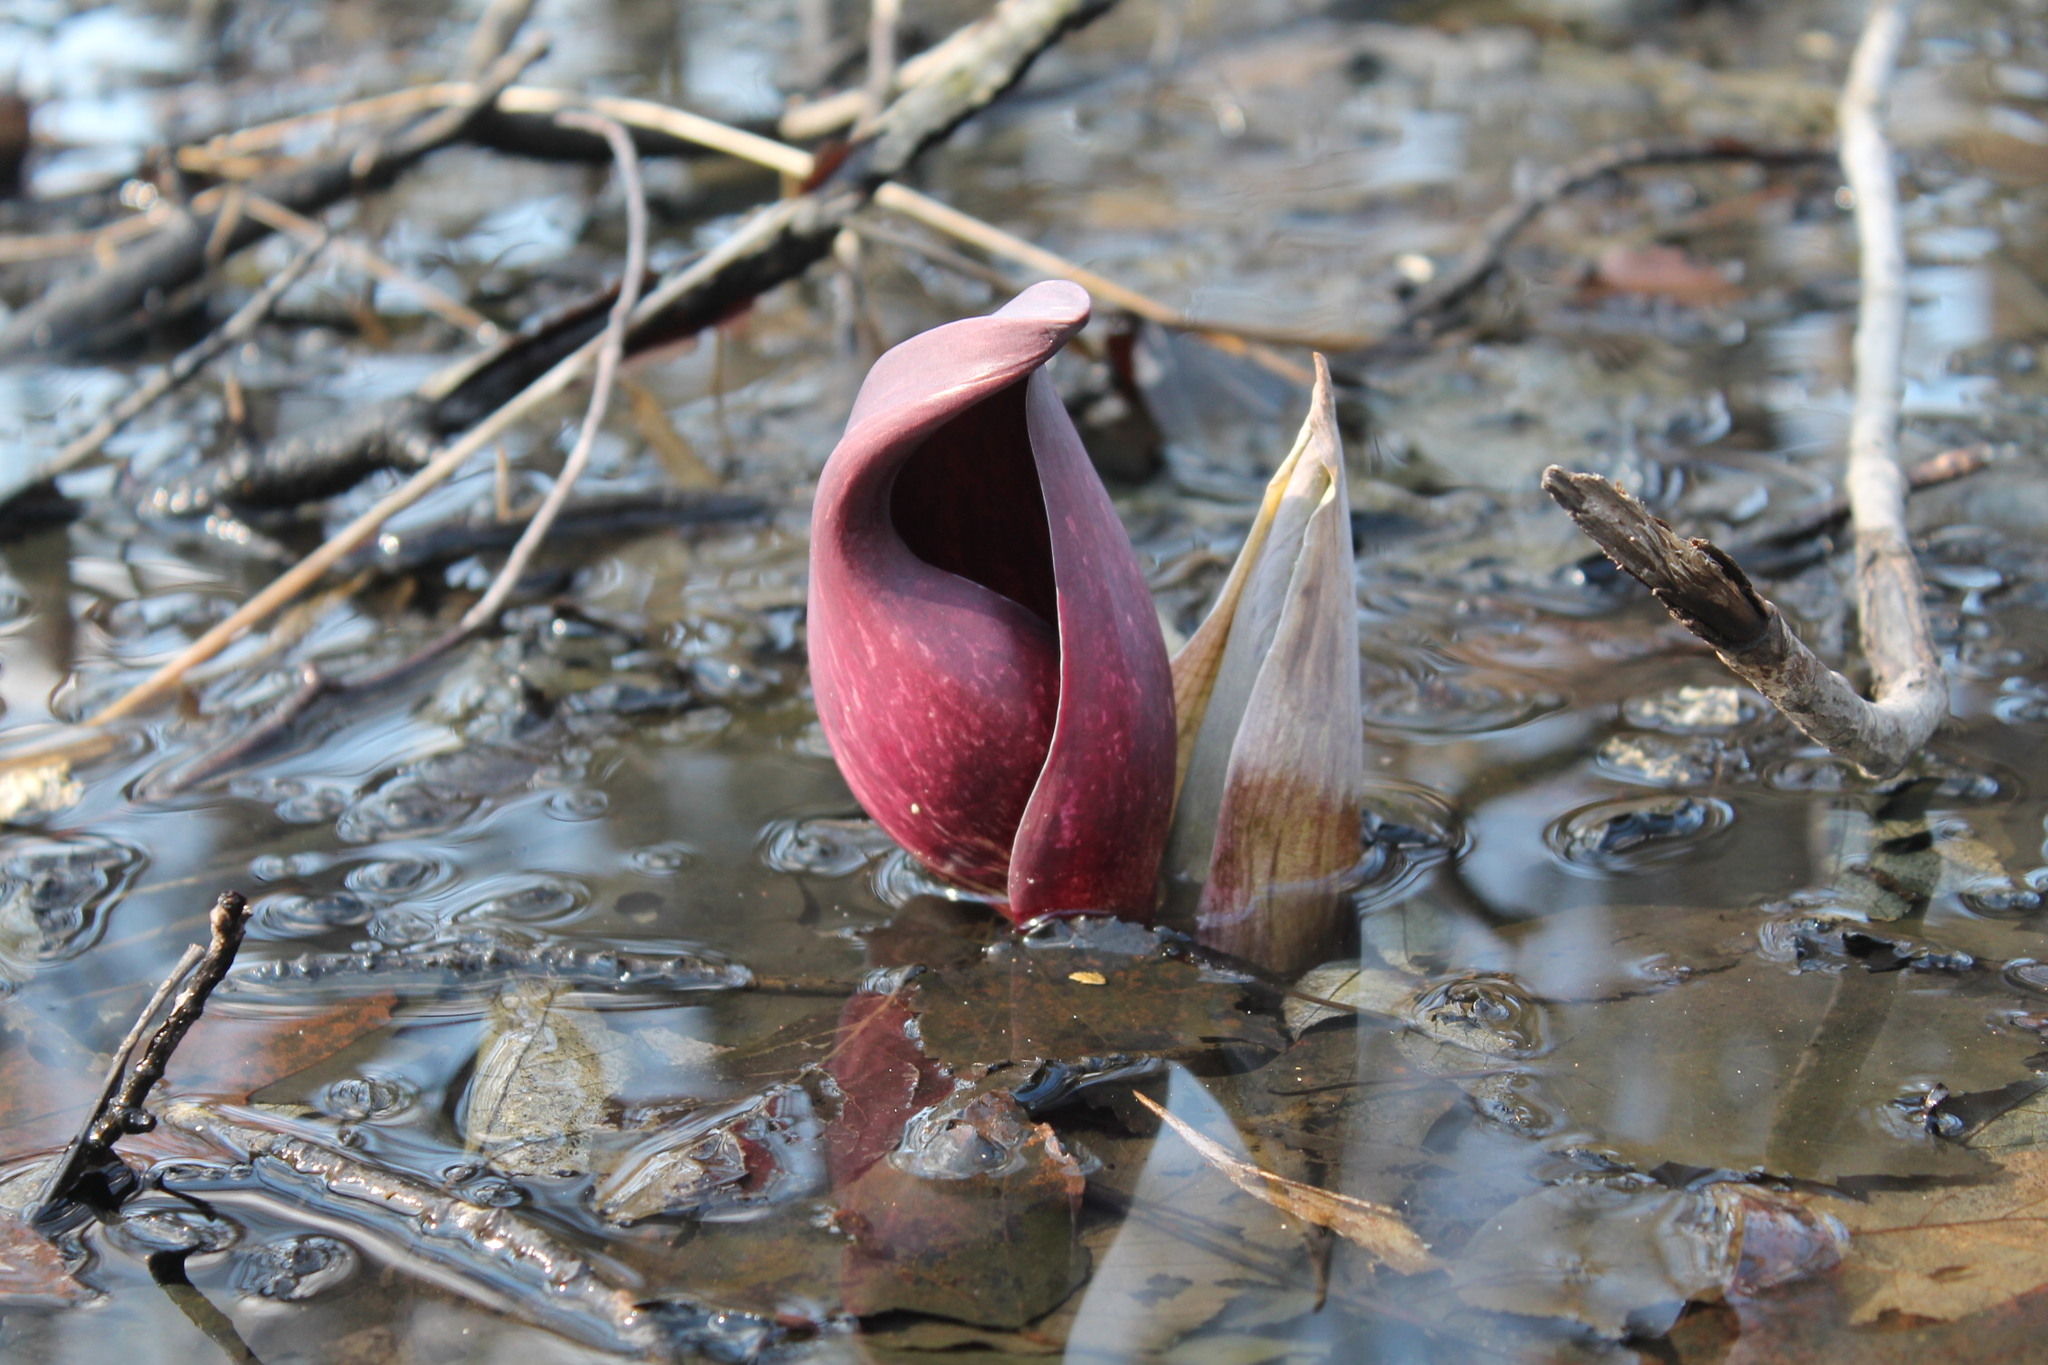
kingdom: Plantae
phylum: Tracheophyta
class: Liliopsida
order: Alismatales
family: Araceae
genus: Symplocarpus
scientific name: Symplocarpus foetidus
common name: Eastern skunk cabbage
